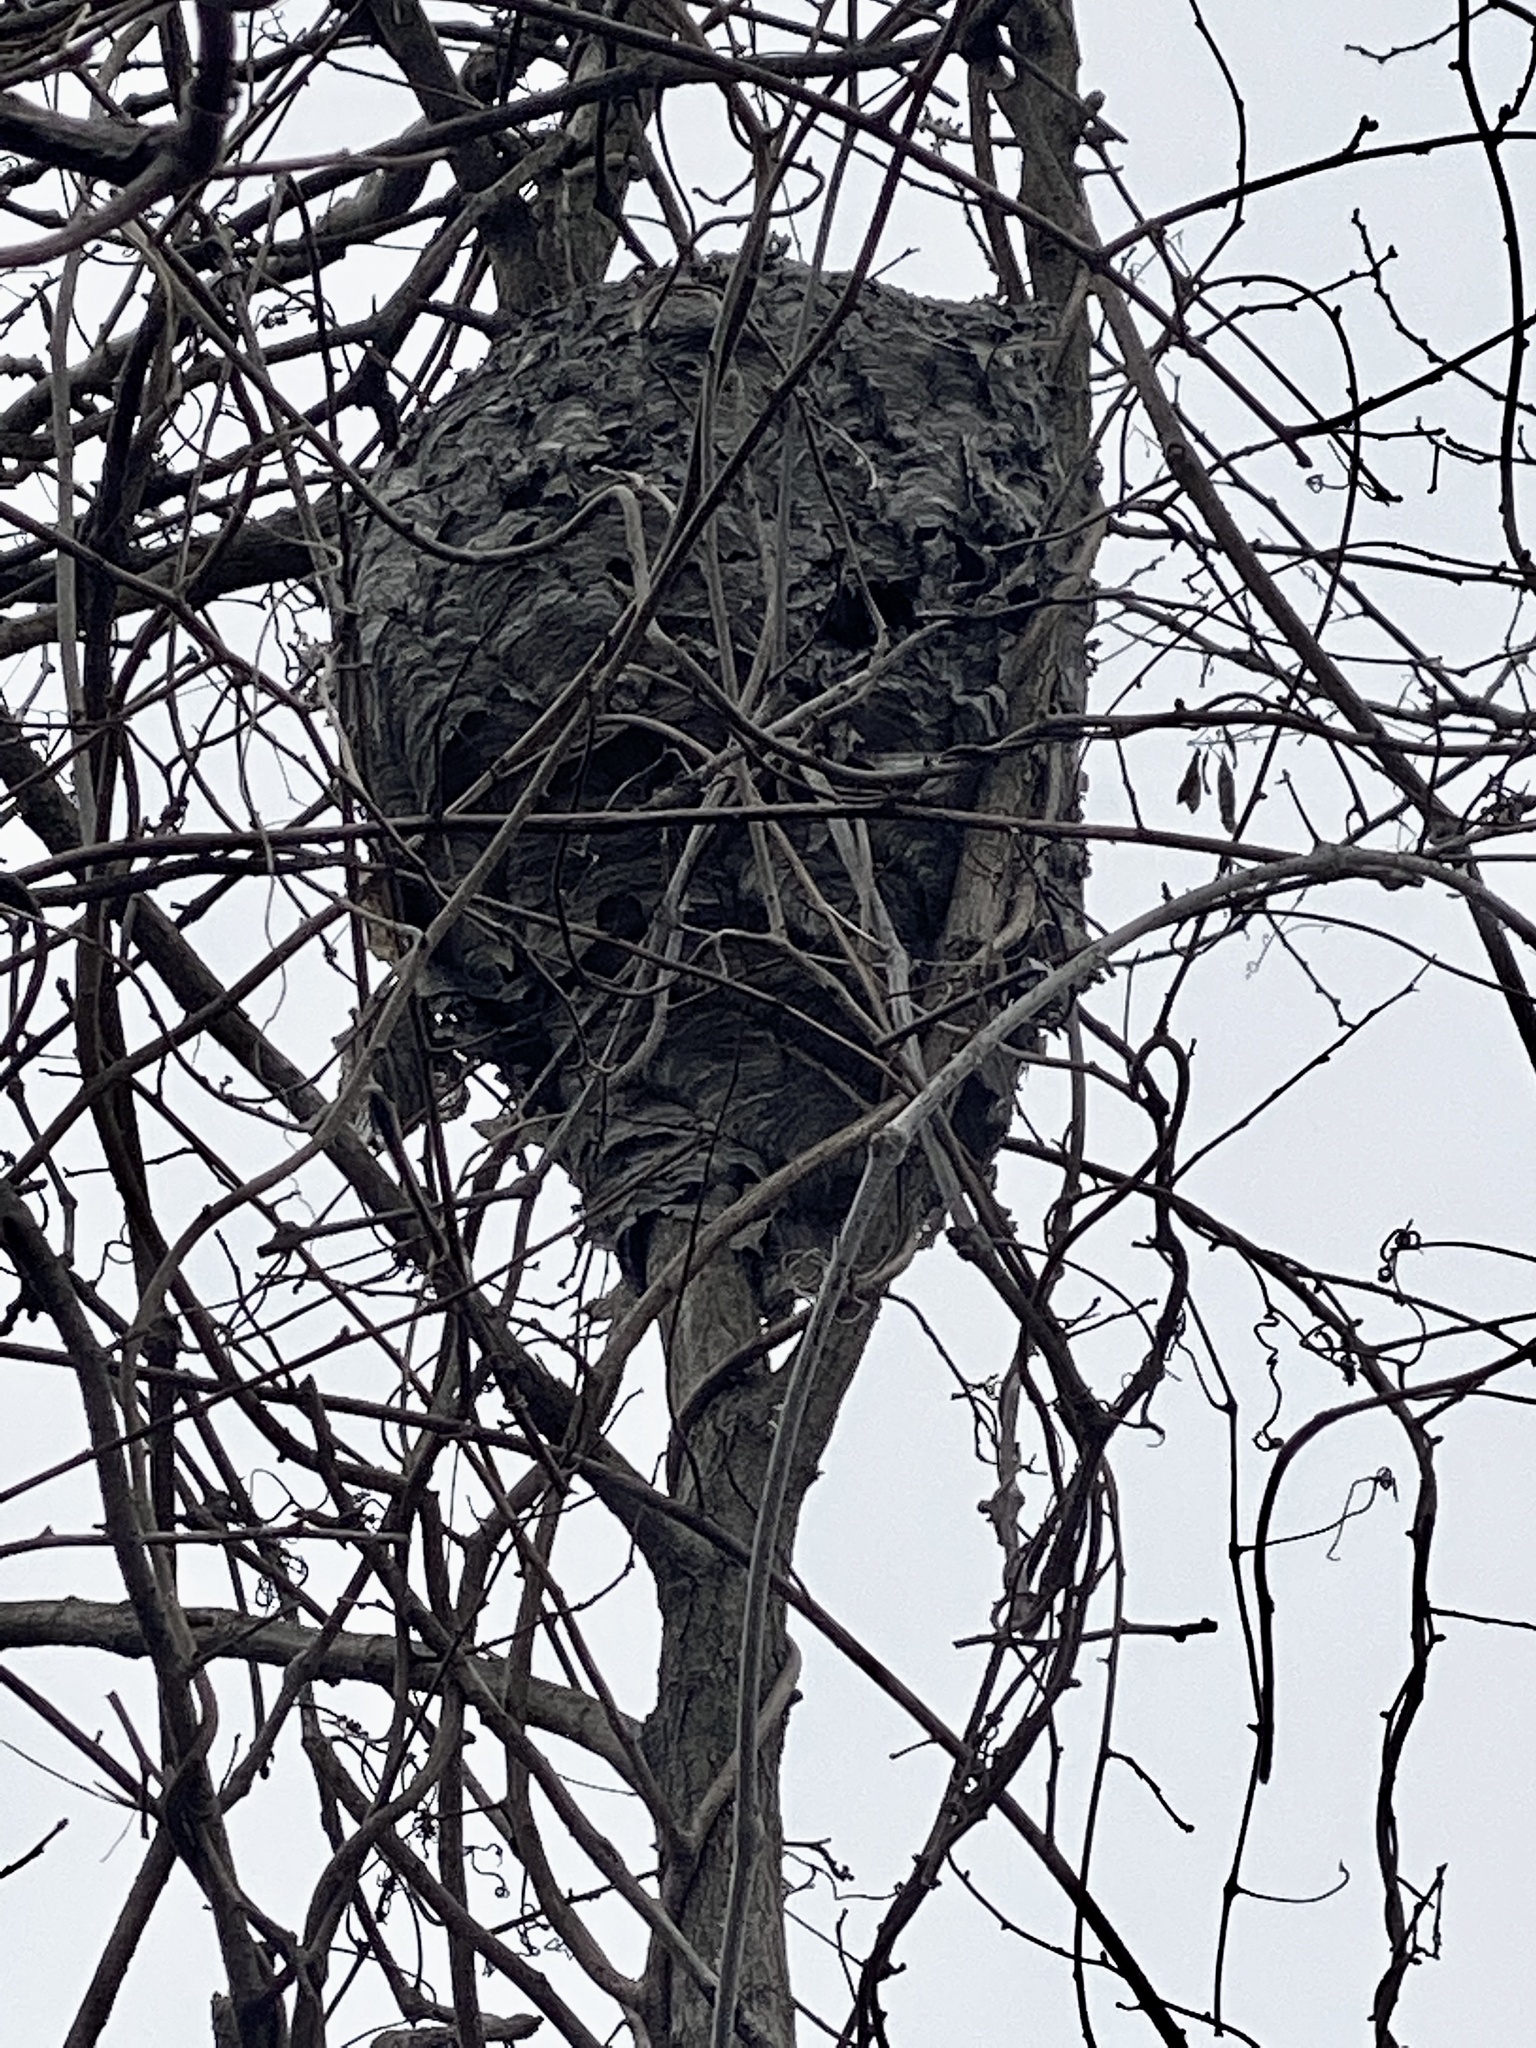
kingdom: Animalia
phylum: Arthropoda
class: Insecta
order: Hymenoptera
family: Vespidae
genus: Dolichovespula
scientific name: Dolichovespula maculata
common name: Bald-faced hornet
